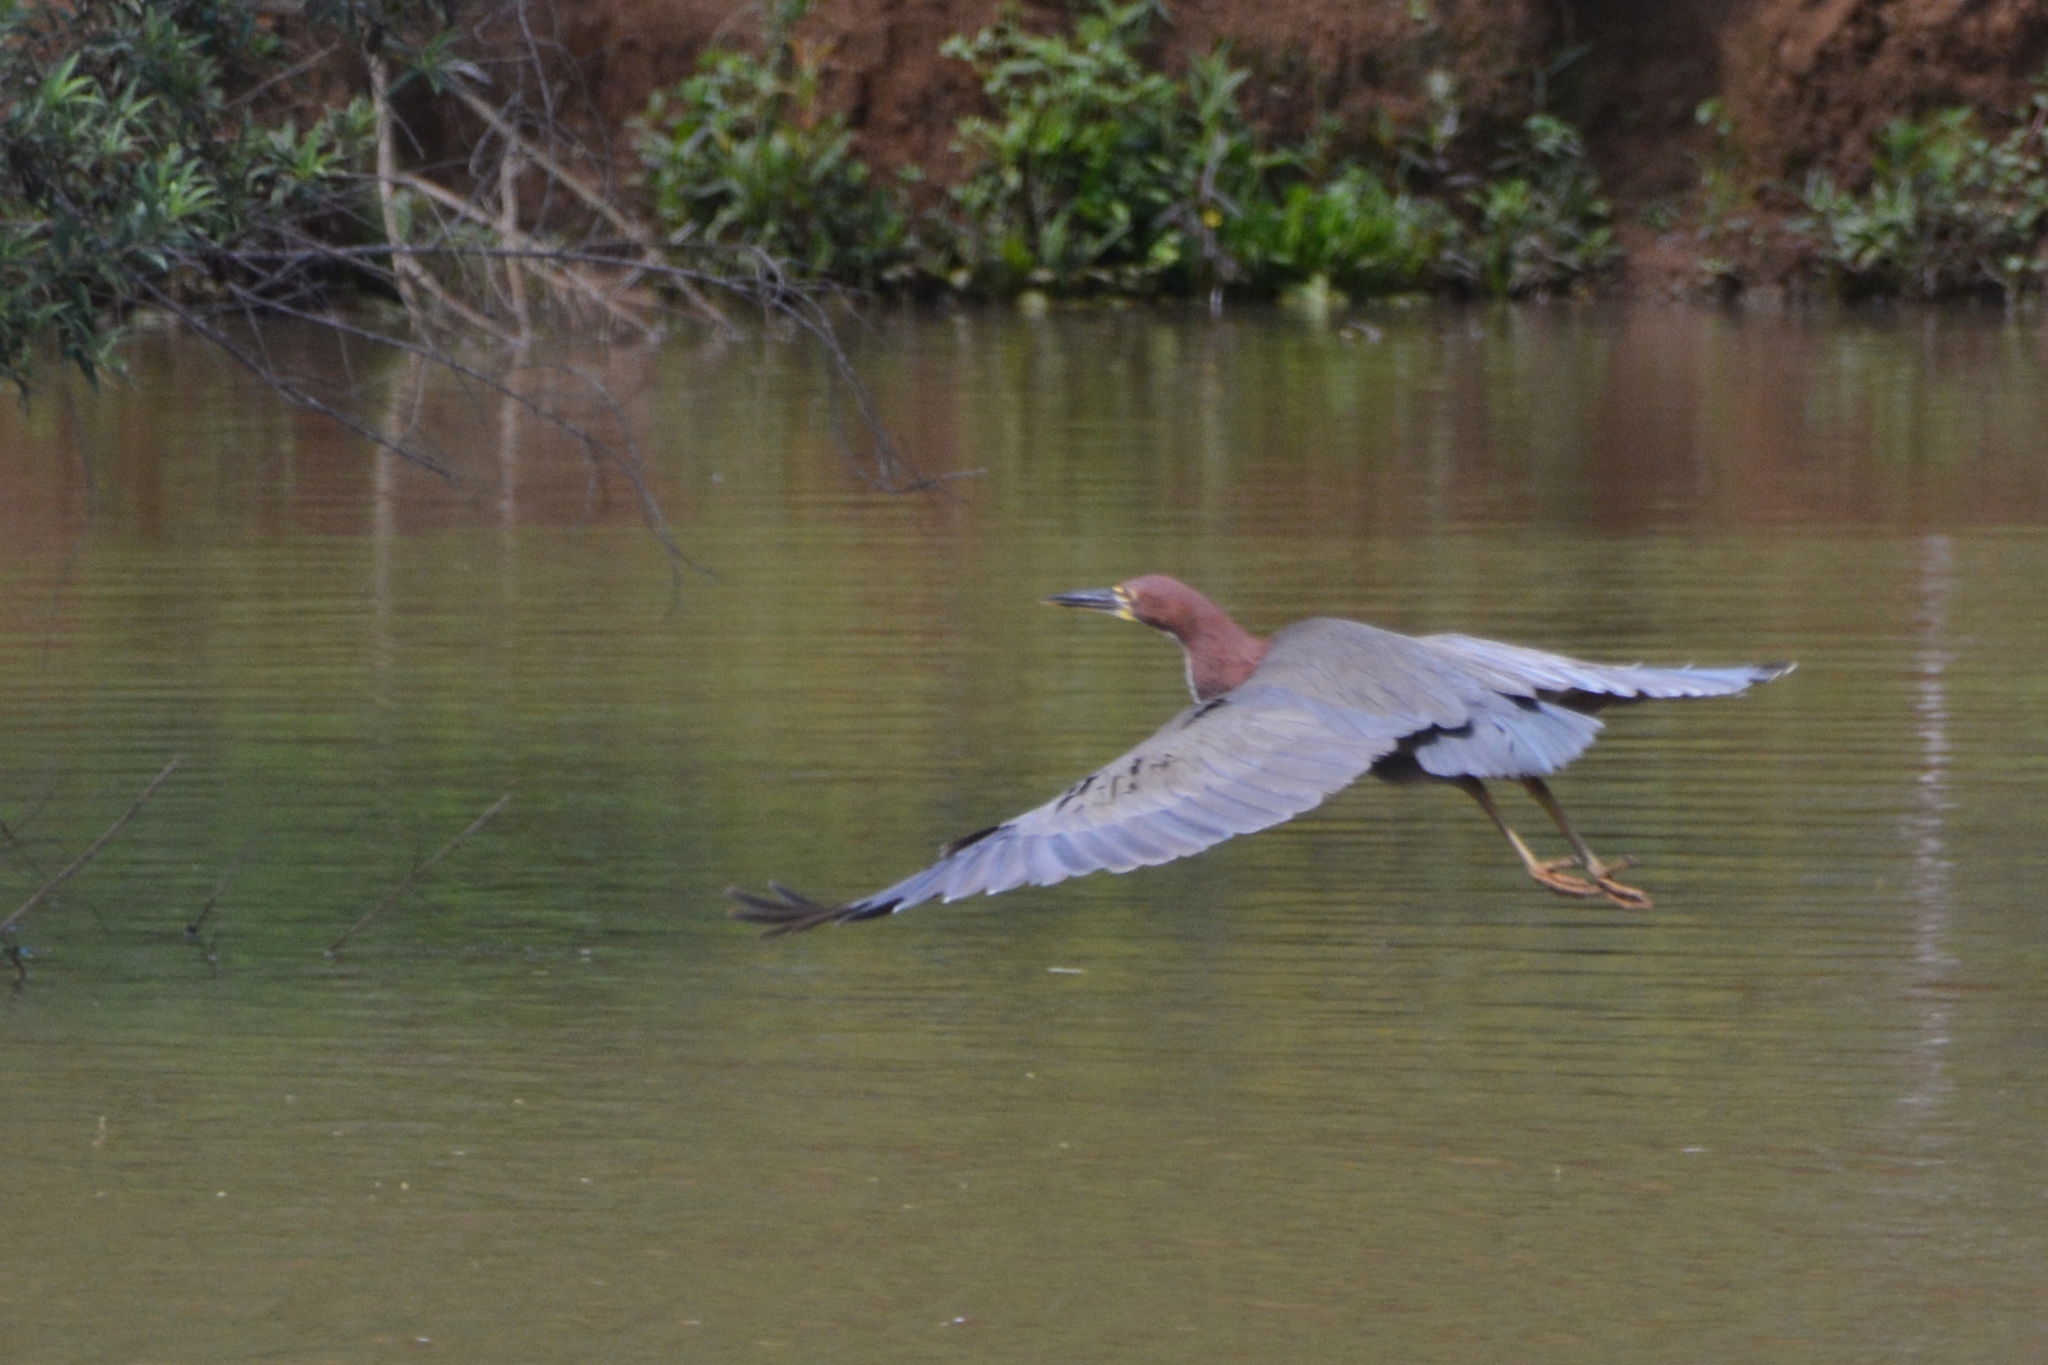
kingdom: Animalia
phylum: Chordata
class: Aves
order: Pelecaniformes
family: Ardeidae
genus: Tigrisoma
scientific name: Tigrisoma lineatum
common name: Rufescent tiger-heron
